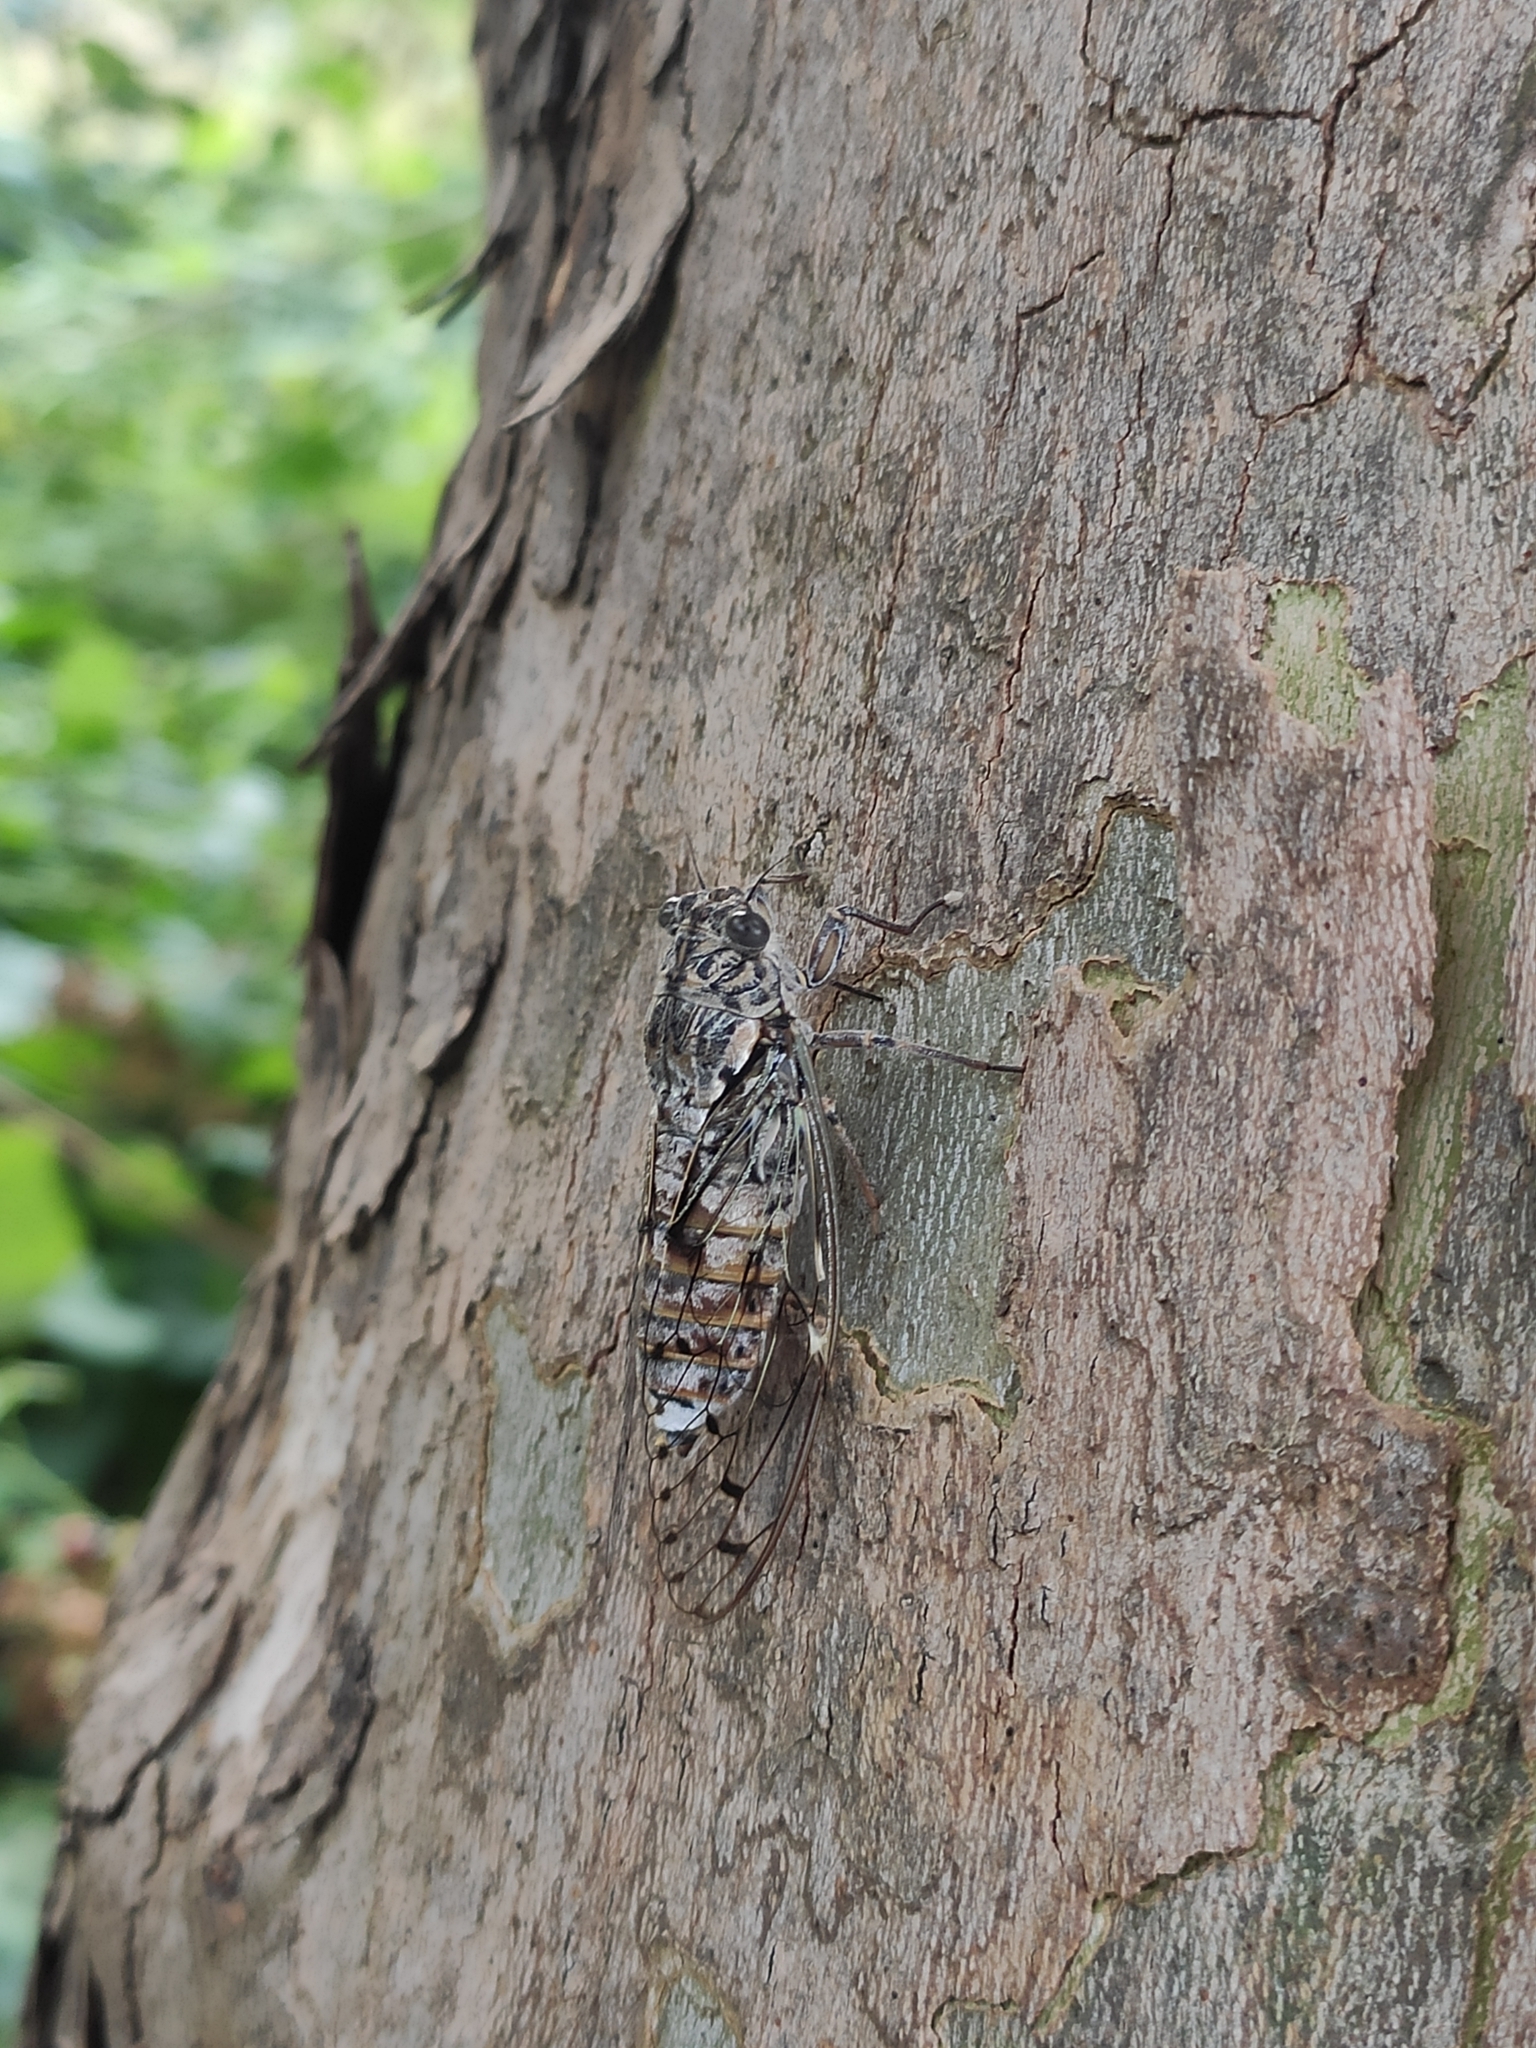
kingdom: Animalia
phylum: Arthropoda
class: Insecta
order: Hemiptera
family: Cicadidae
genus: Cicada
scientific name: Cicada orni
